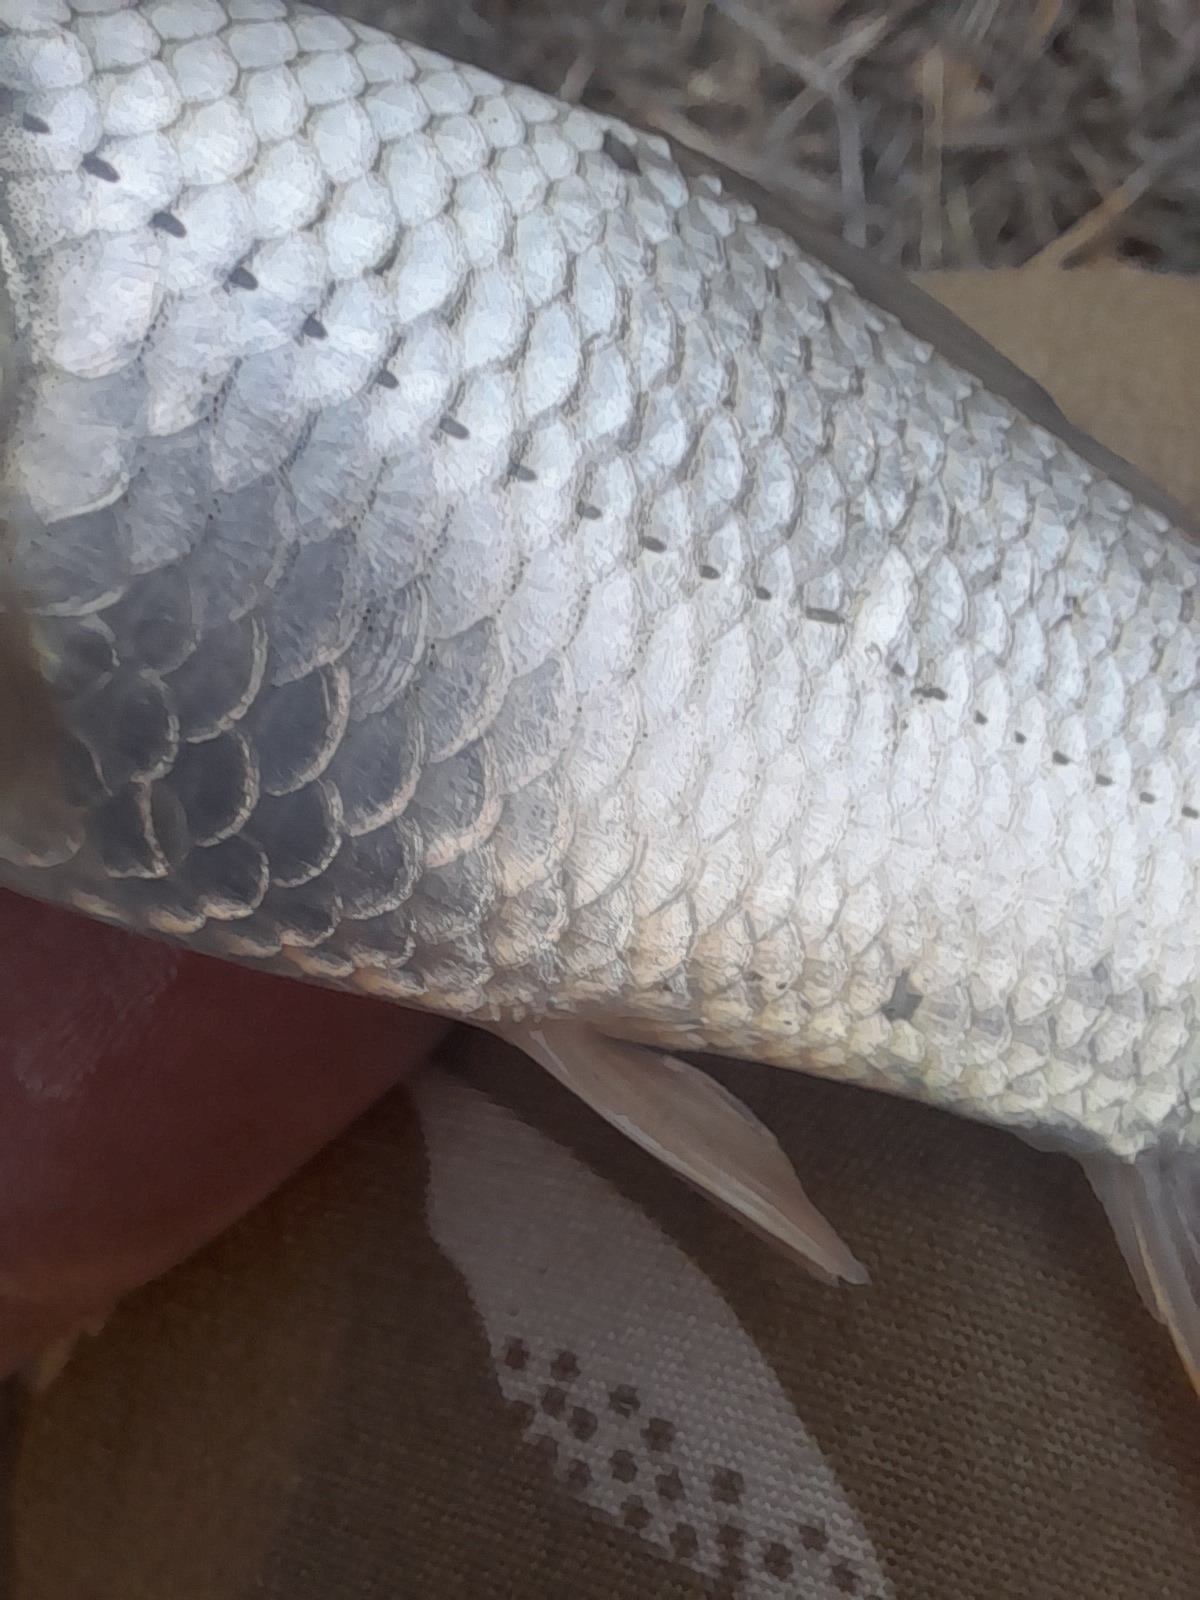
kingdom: Animalia
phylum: Chordata
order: Cypriniformes
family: Cyprinidae
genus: Cyprinus
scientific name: Cyprinus carpio
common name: Common carp
